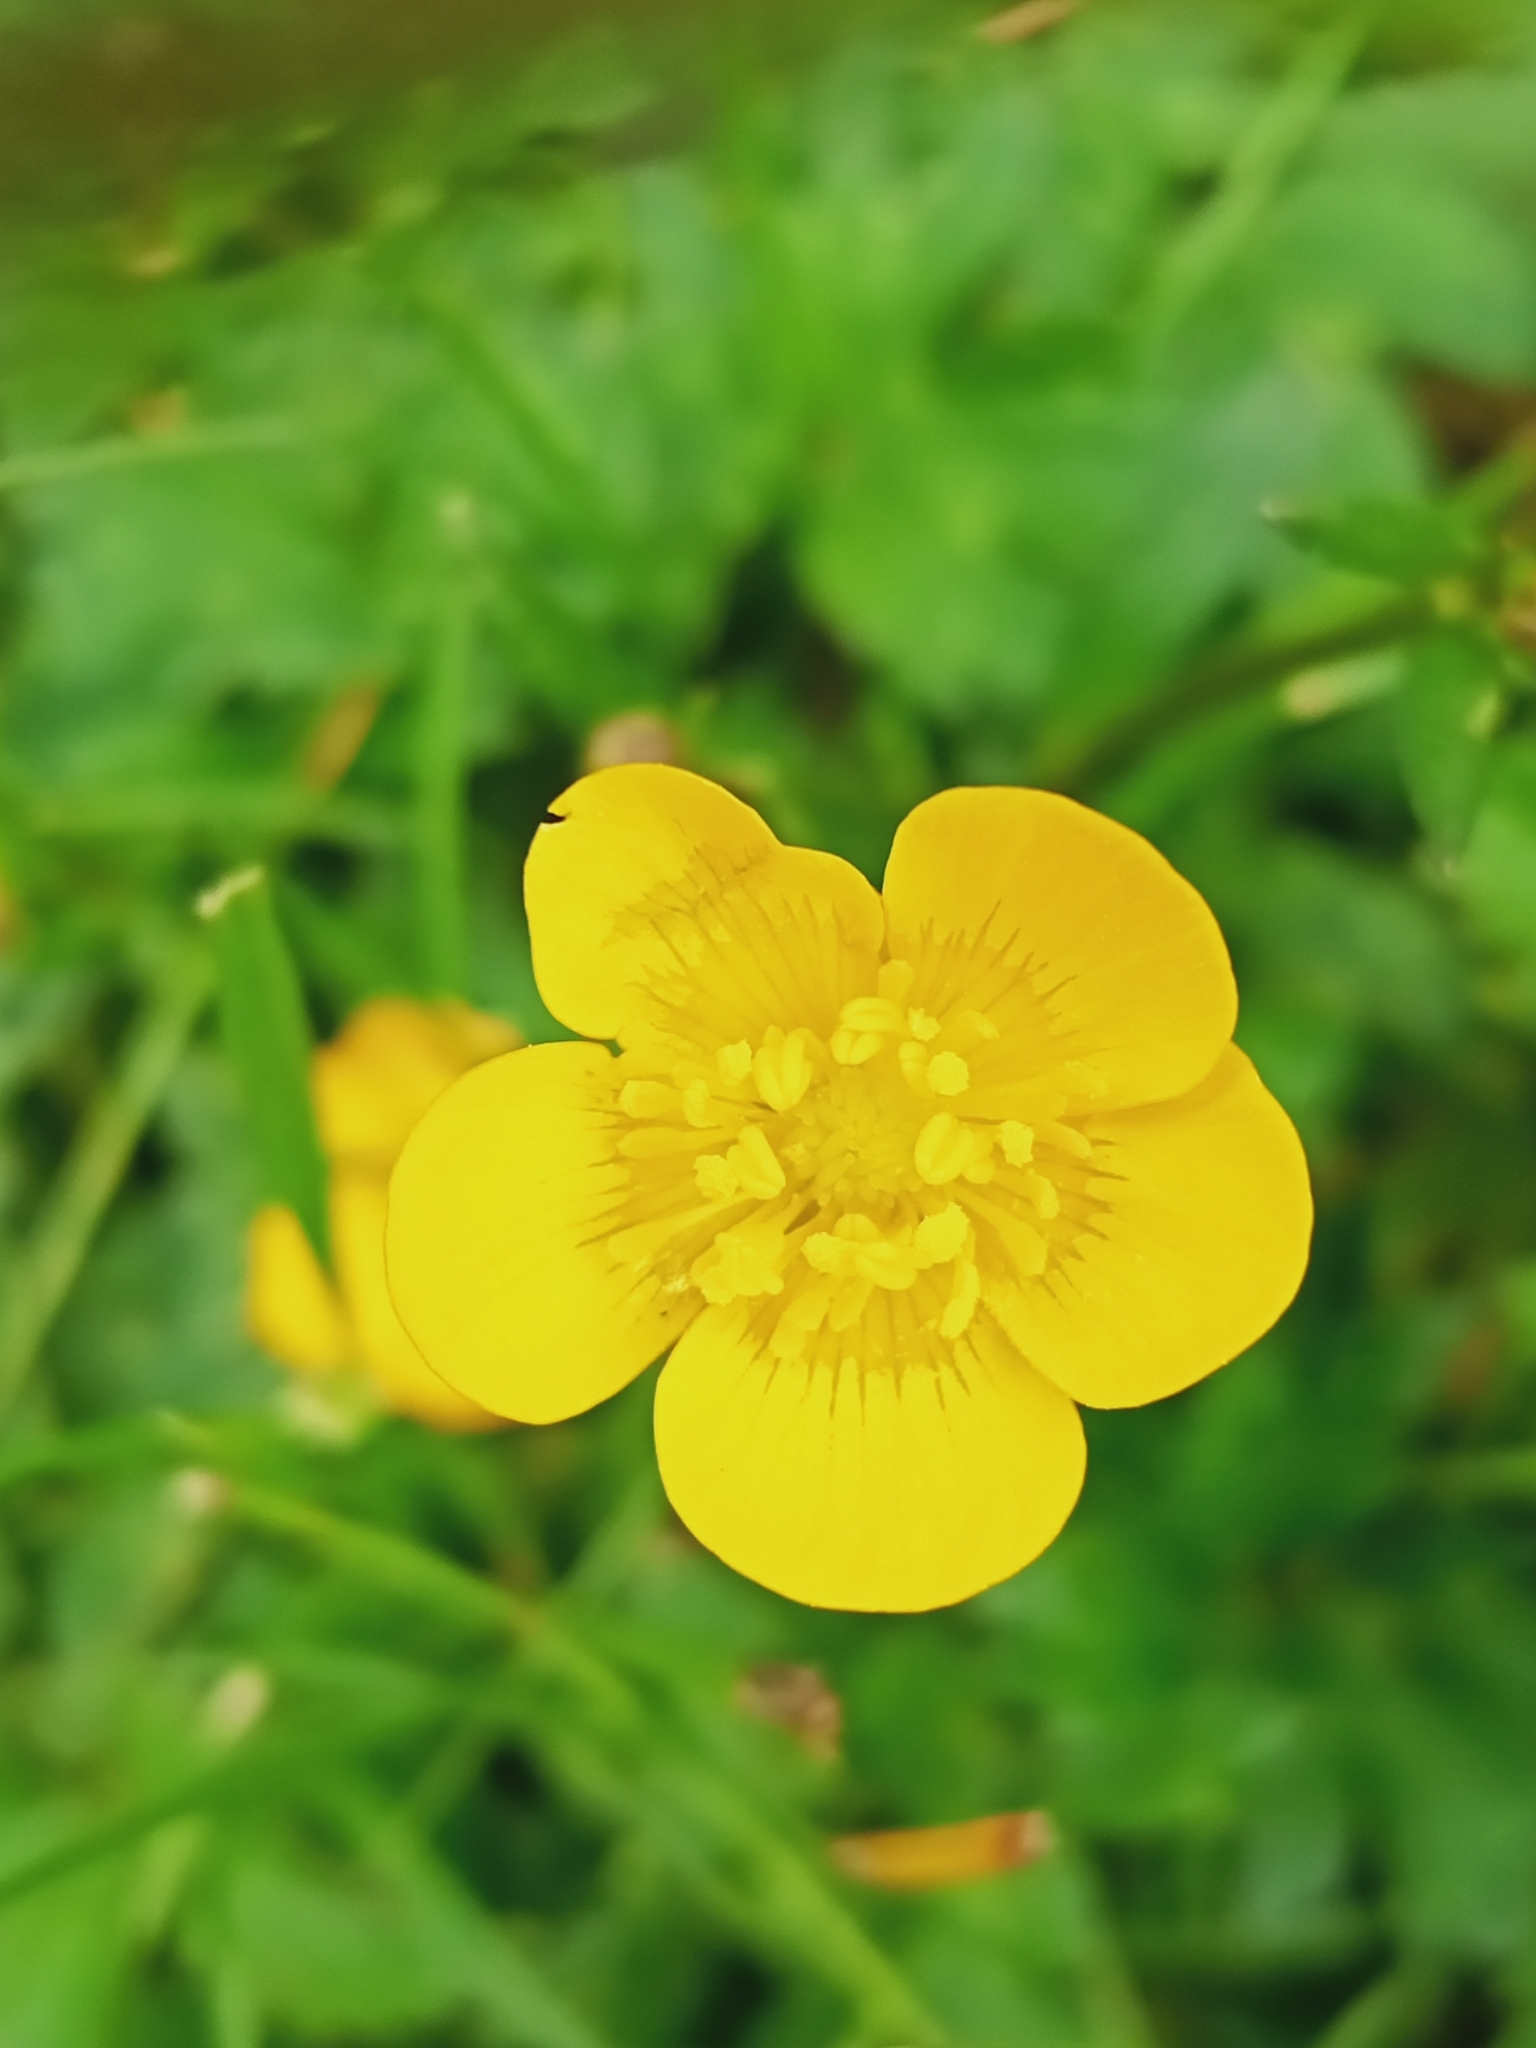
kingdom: Plantae
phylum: Tracheophyta
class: Magnoliopsida
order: Ranunculales
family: Ranunculaceae
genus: Ranunculus
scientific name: Ranunculus repens
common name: Creeping buttercup
